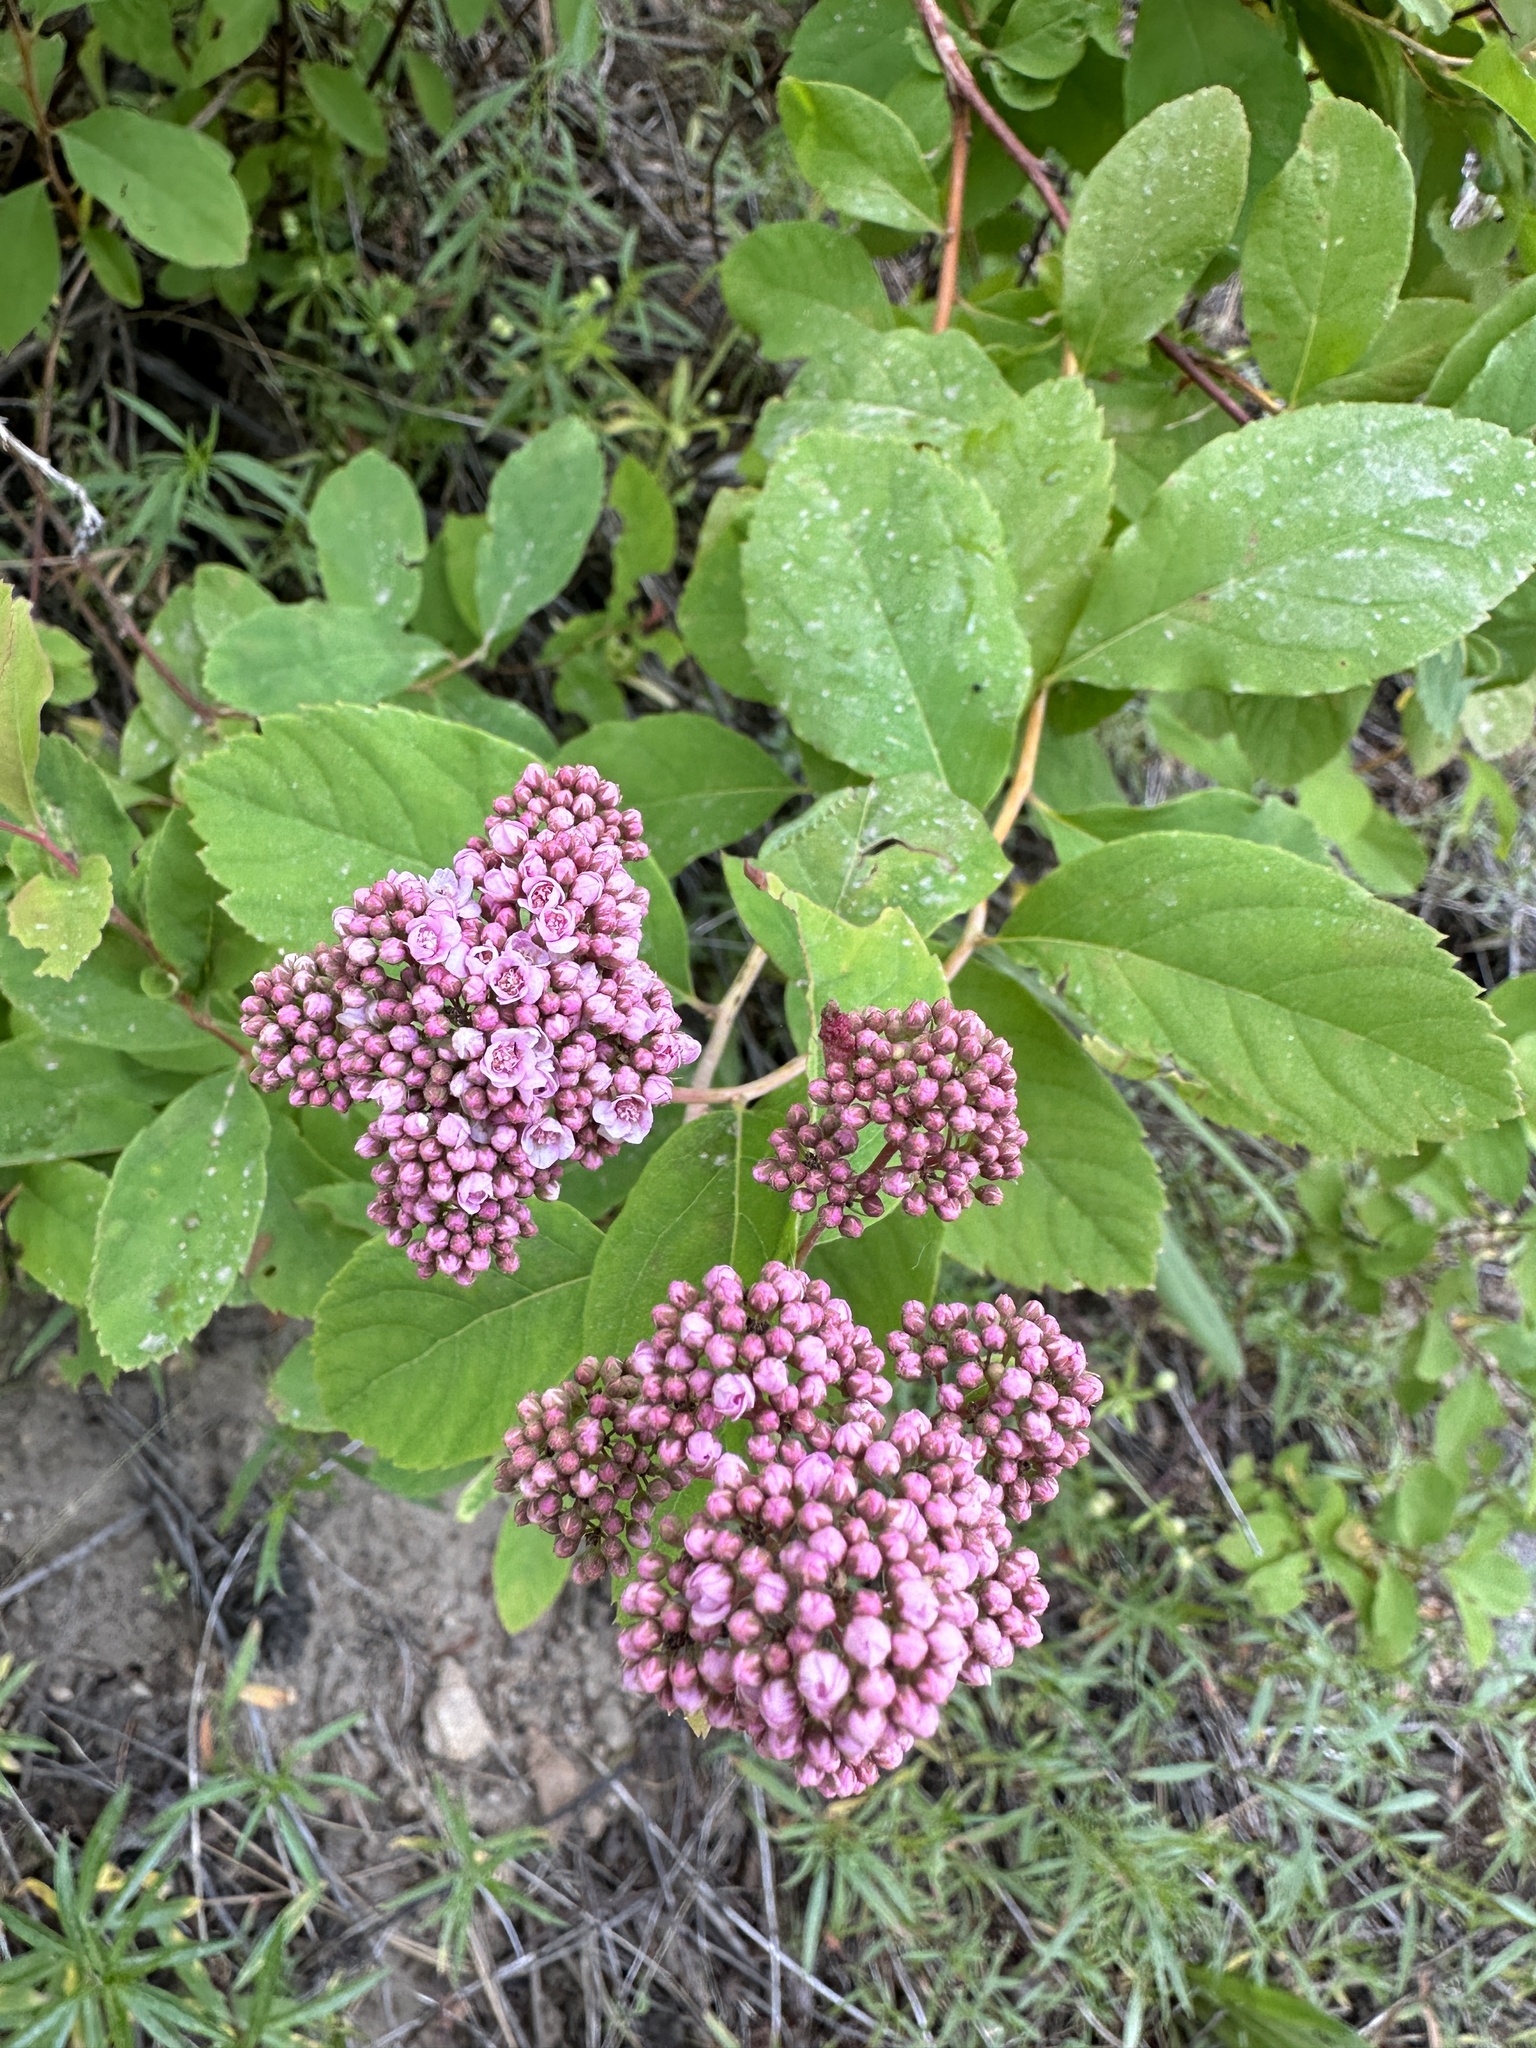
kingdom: Plantae
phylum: Tracheophyta
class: Magnoliopsida
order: Rosales
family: Rosaceae
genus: Spiraea
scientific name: Spiraea splendens
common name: Subalpine meadowsweet
